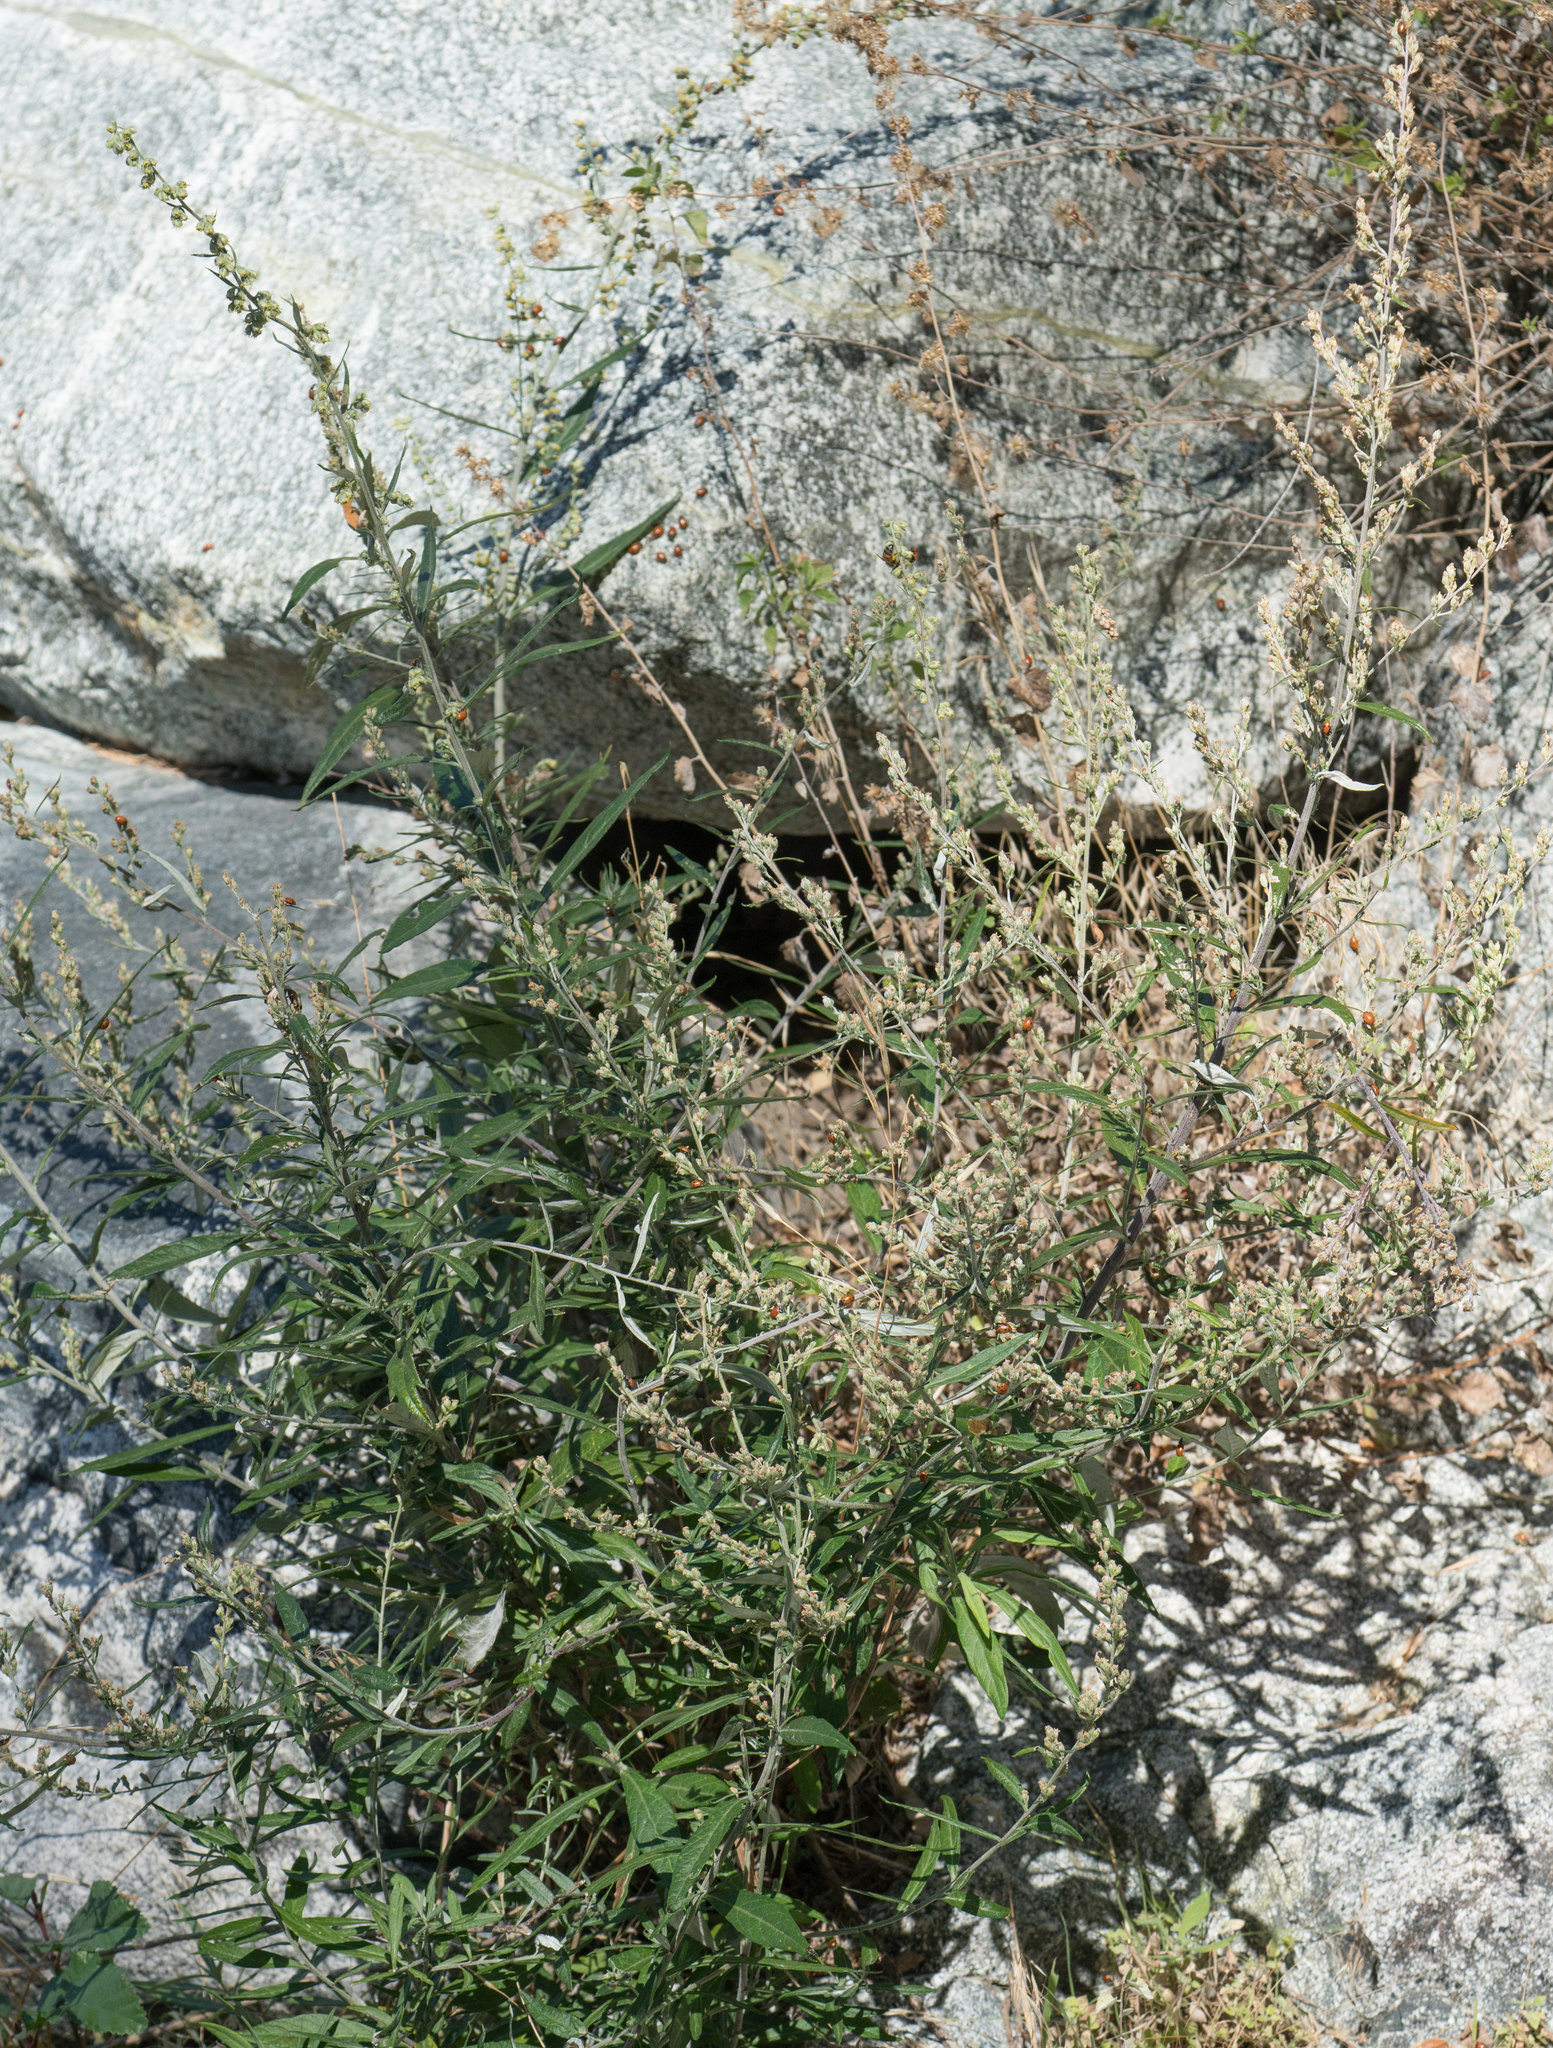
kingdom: Plantae
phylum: Tracheophyta
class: Magnoliopsida
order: Asterales
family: Asteraceae
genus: Artemisia
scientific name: Artemisia douglasiana
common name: Northwest mugwort
